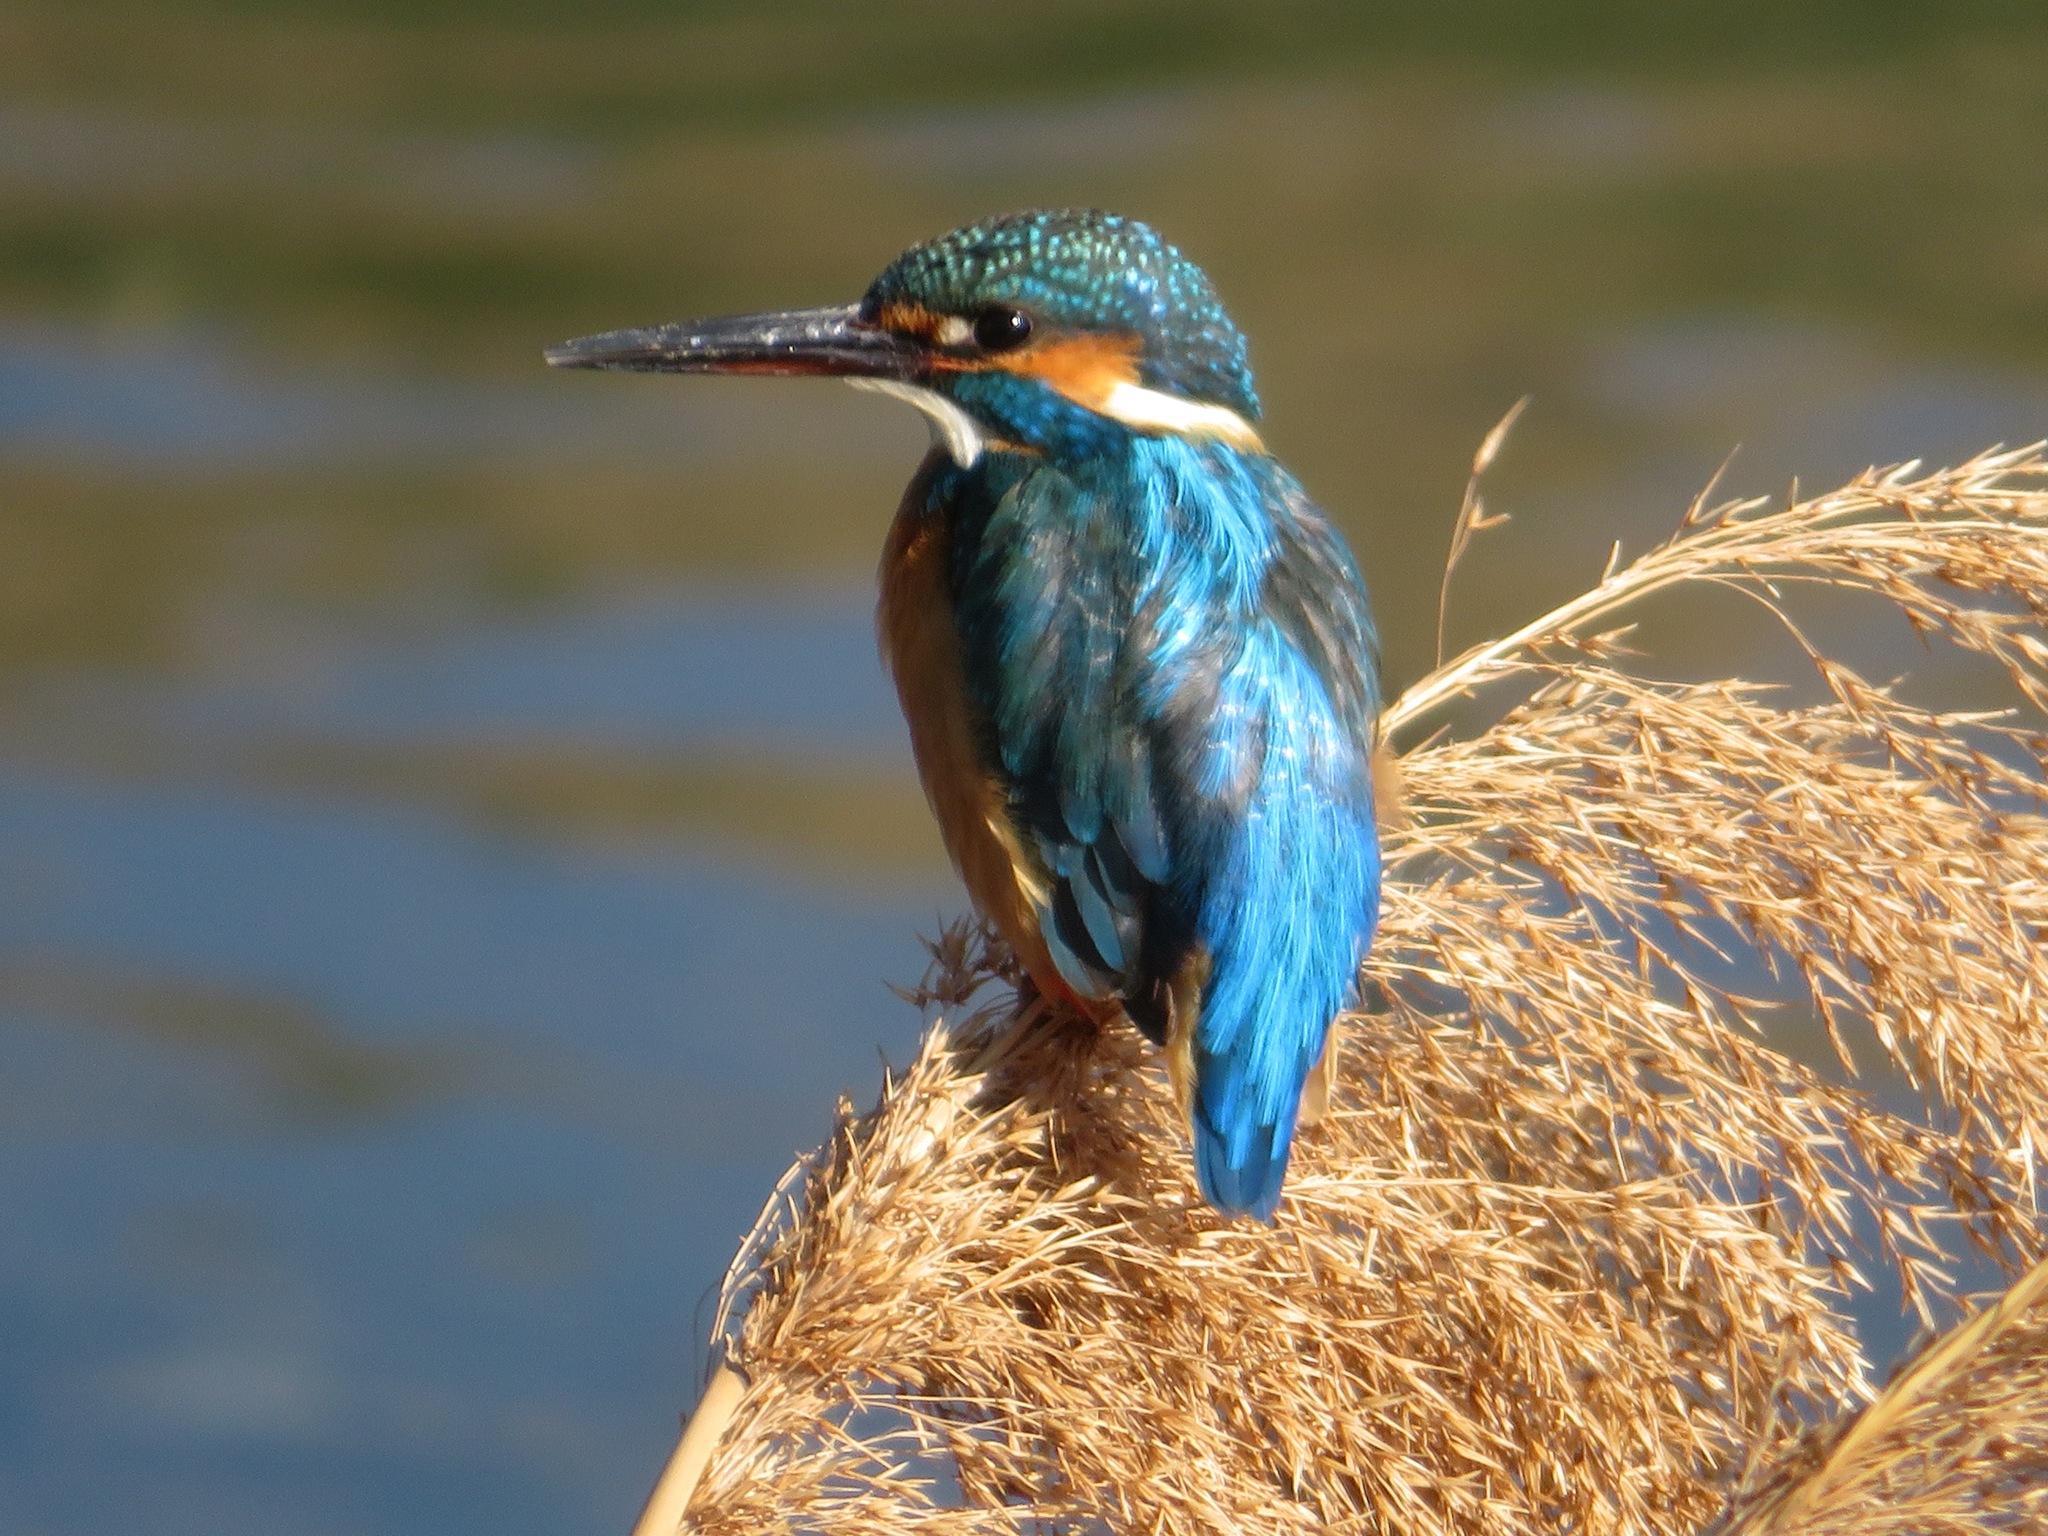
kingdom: Animalia
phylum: Chordata
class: Aves
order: Coraciiformes
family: Alcedinidae
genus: Alcedo
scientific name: Alcedo atthis
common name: Common kingfisher
